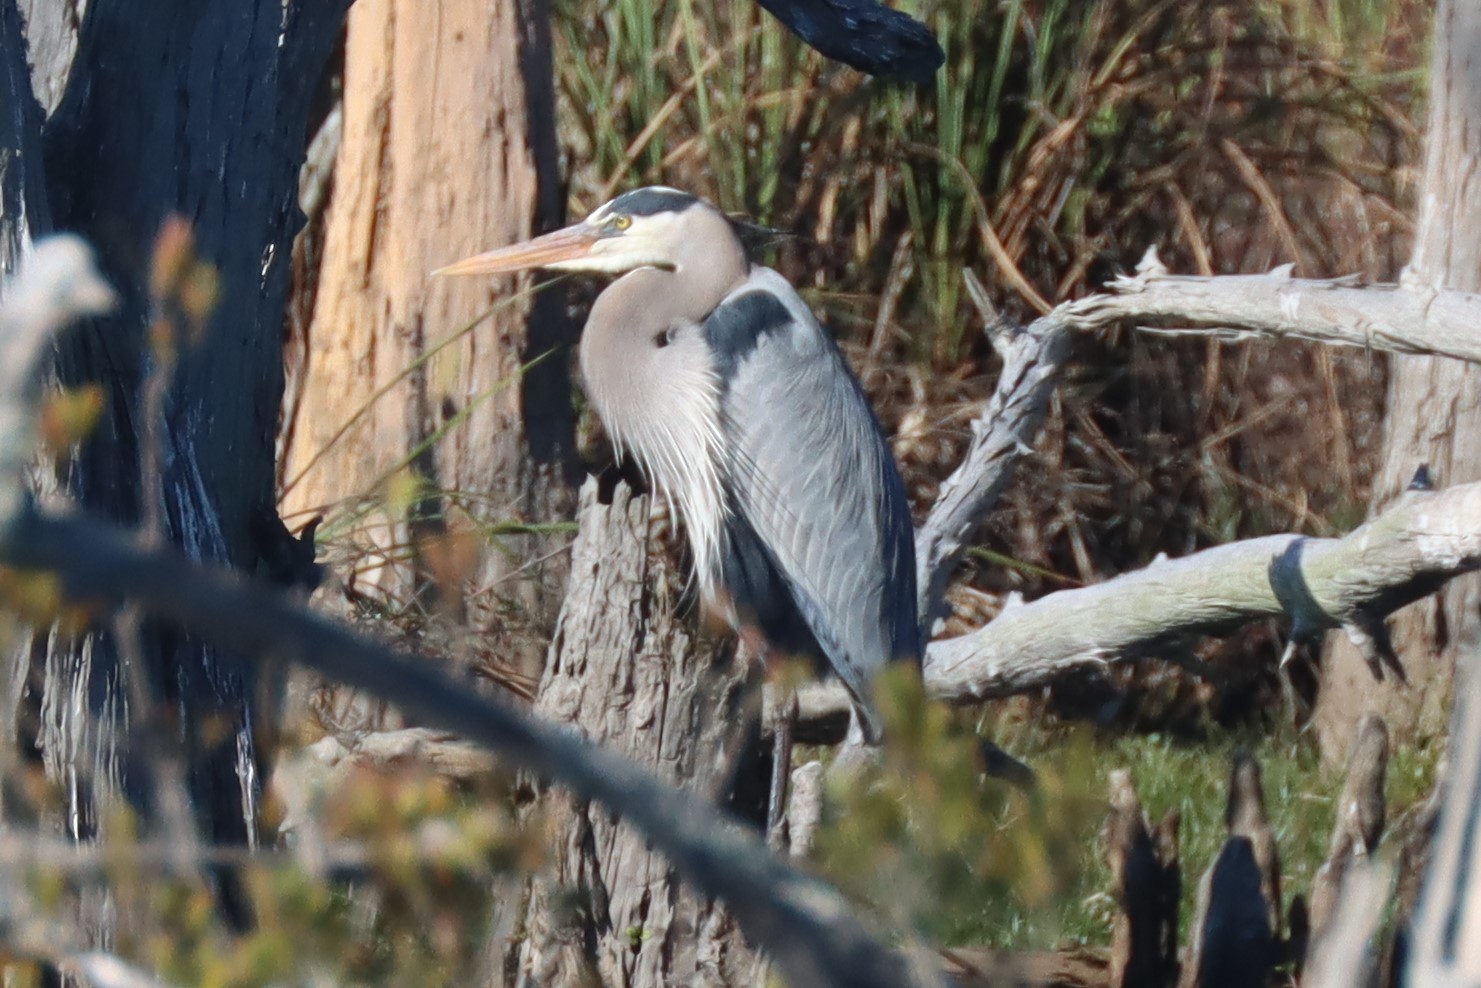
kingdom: Animalia
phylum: Chordata
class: Aves
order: Pelecaniformes
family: Ardeidae
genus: Ardea
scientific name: Ardea herodias
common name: Great blue heron
